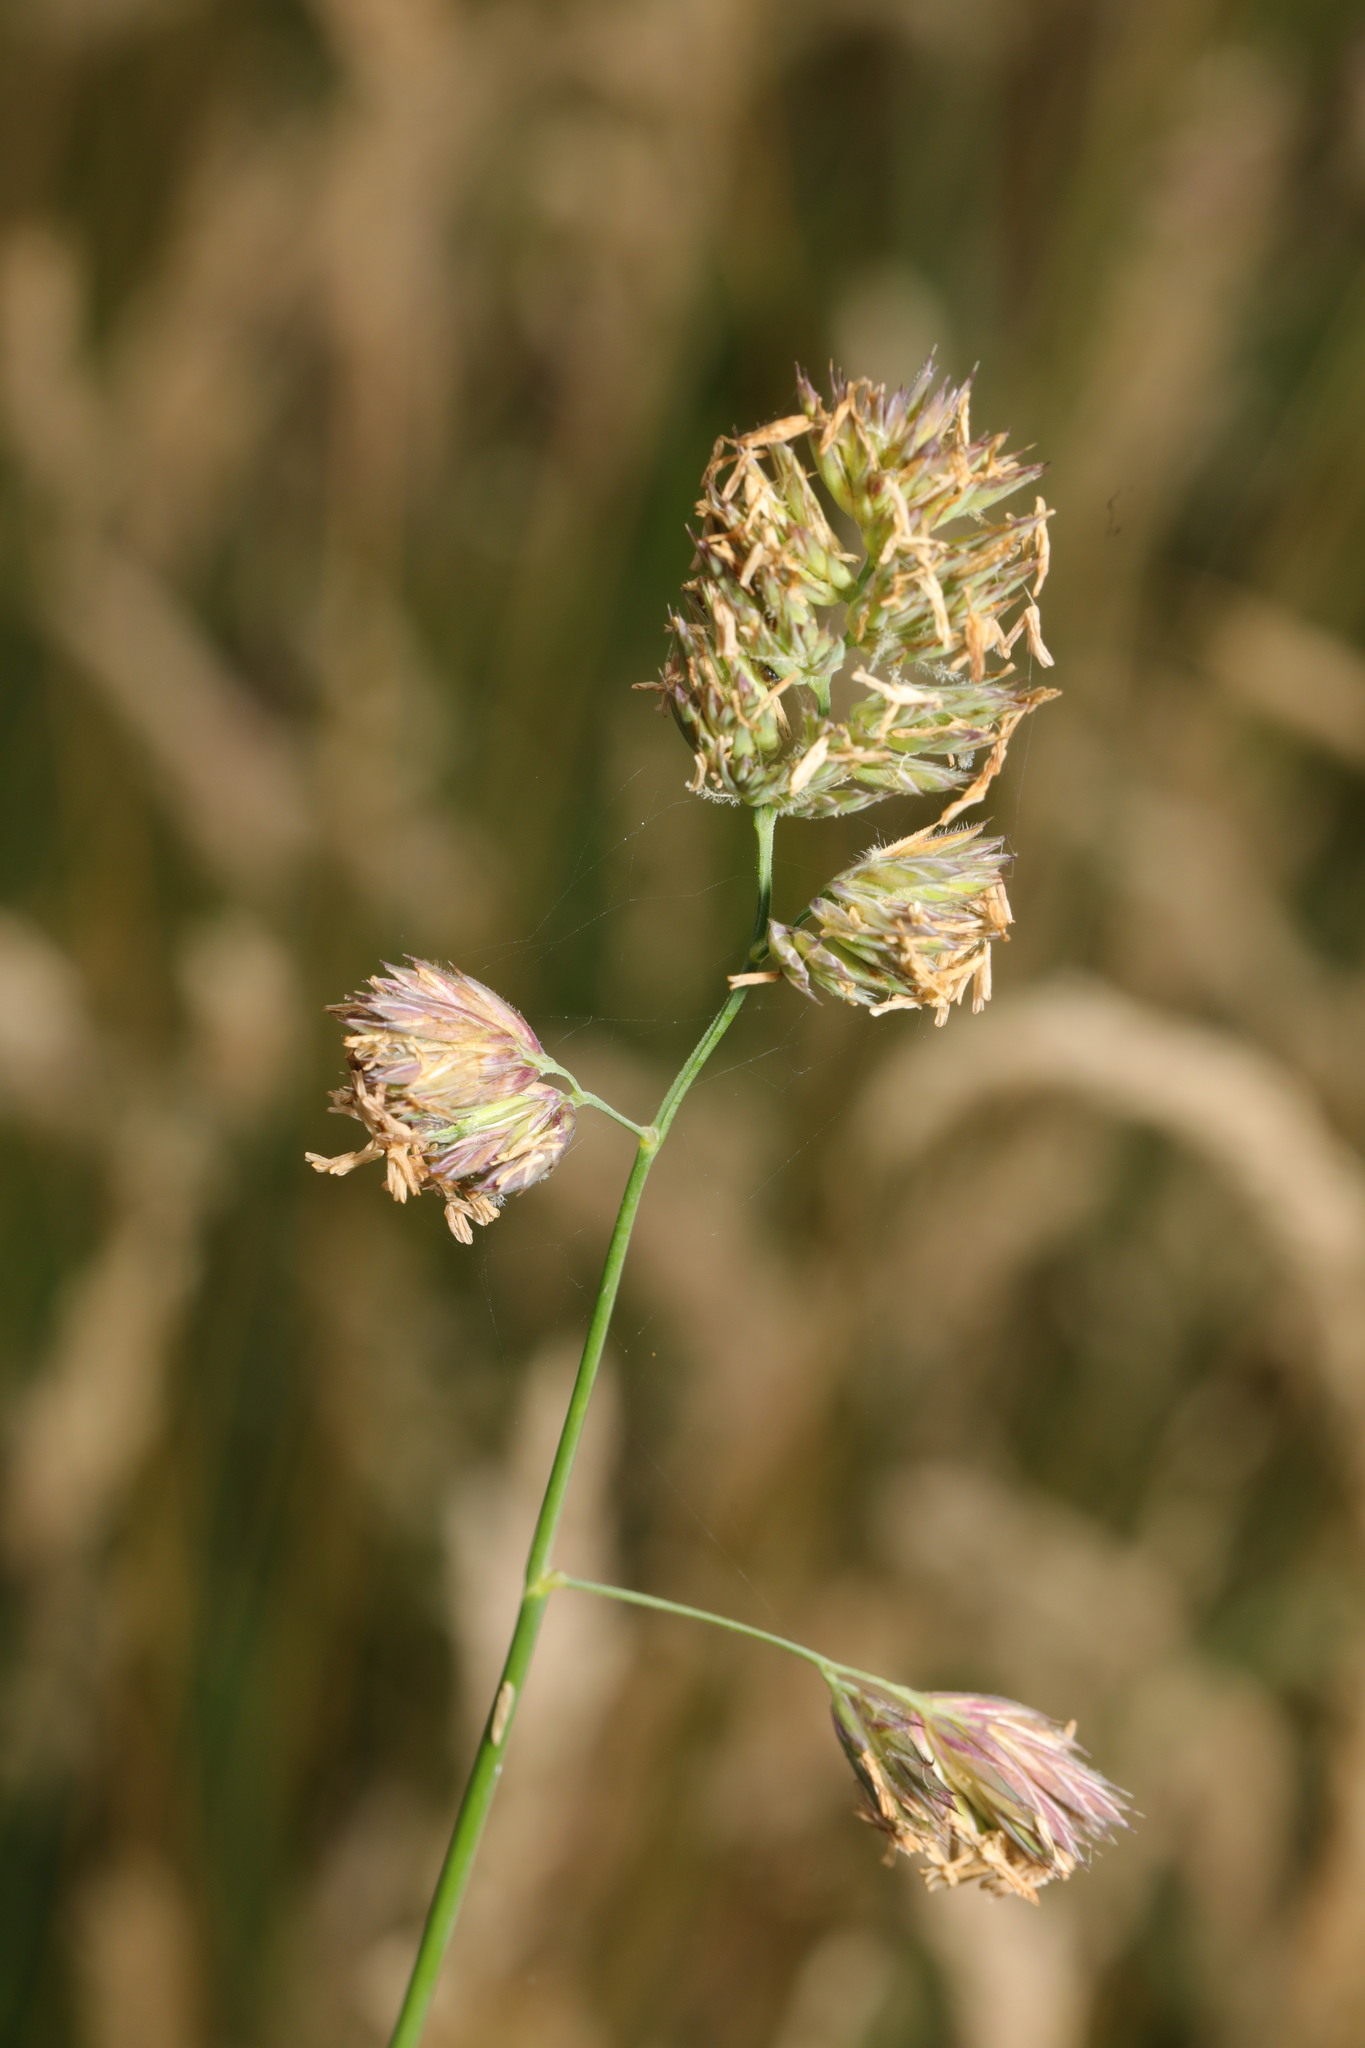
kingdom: Plantae
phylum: Tracheophyta
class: Liliopsida
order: Poales
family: Poaceae
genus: Dactylis
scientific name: Dactylis glomerata
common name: Orchardgrass
